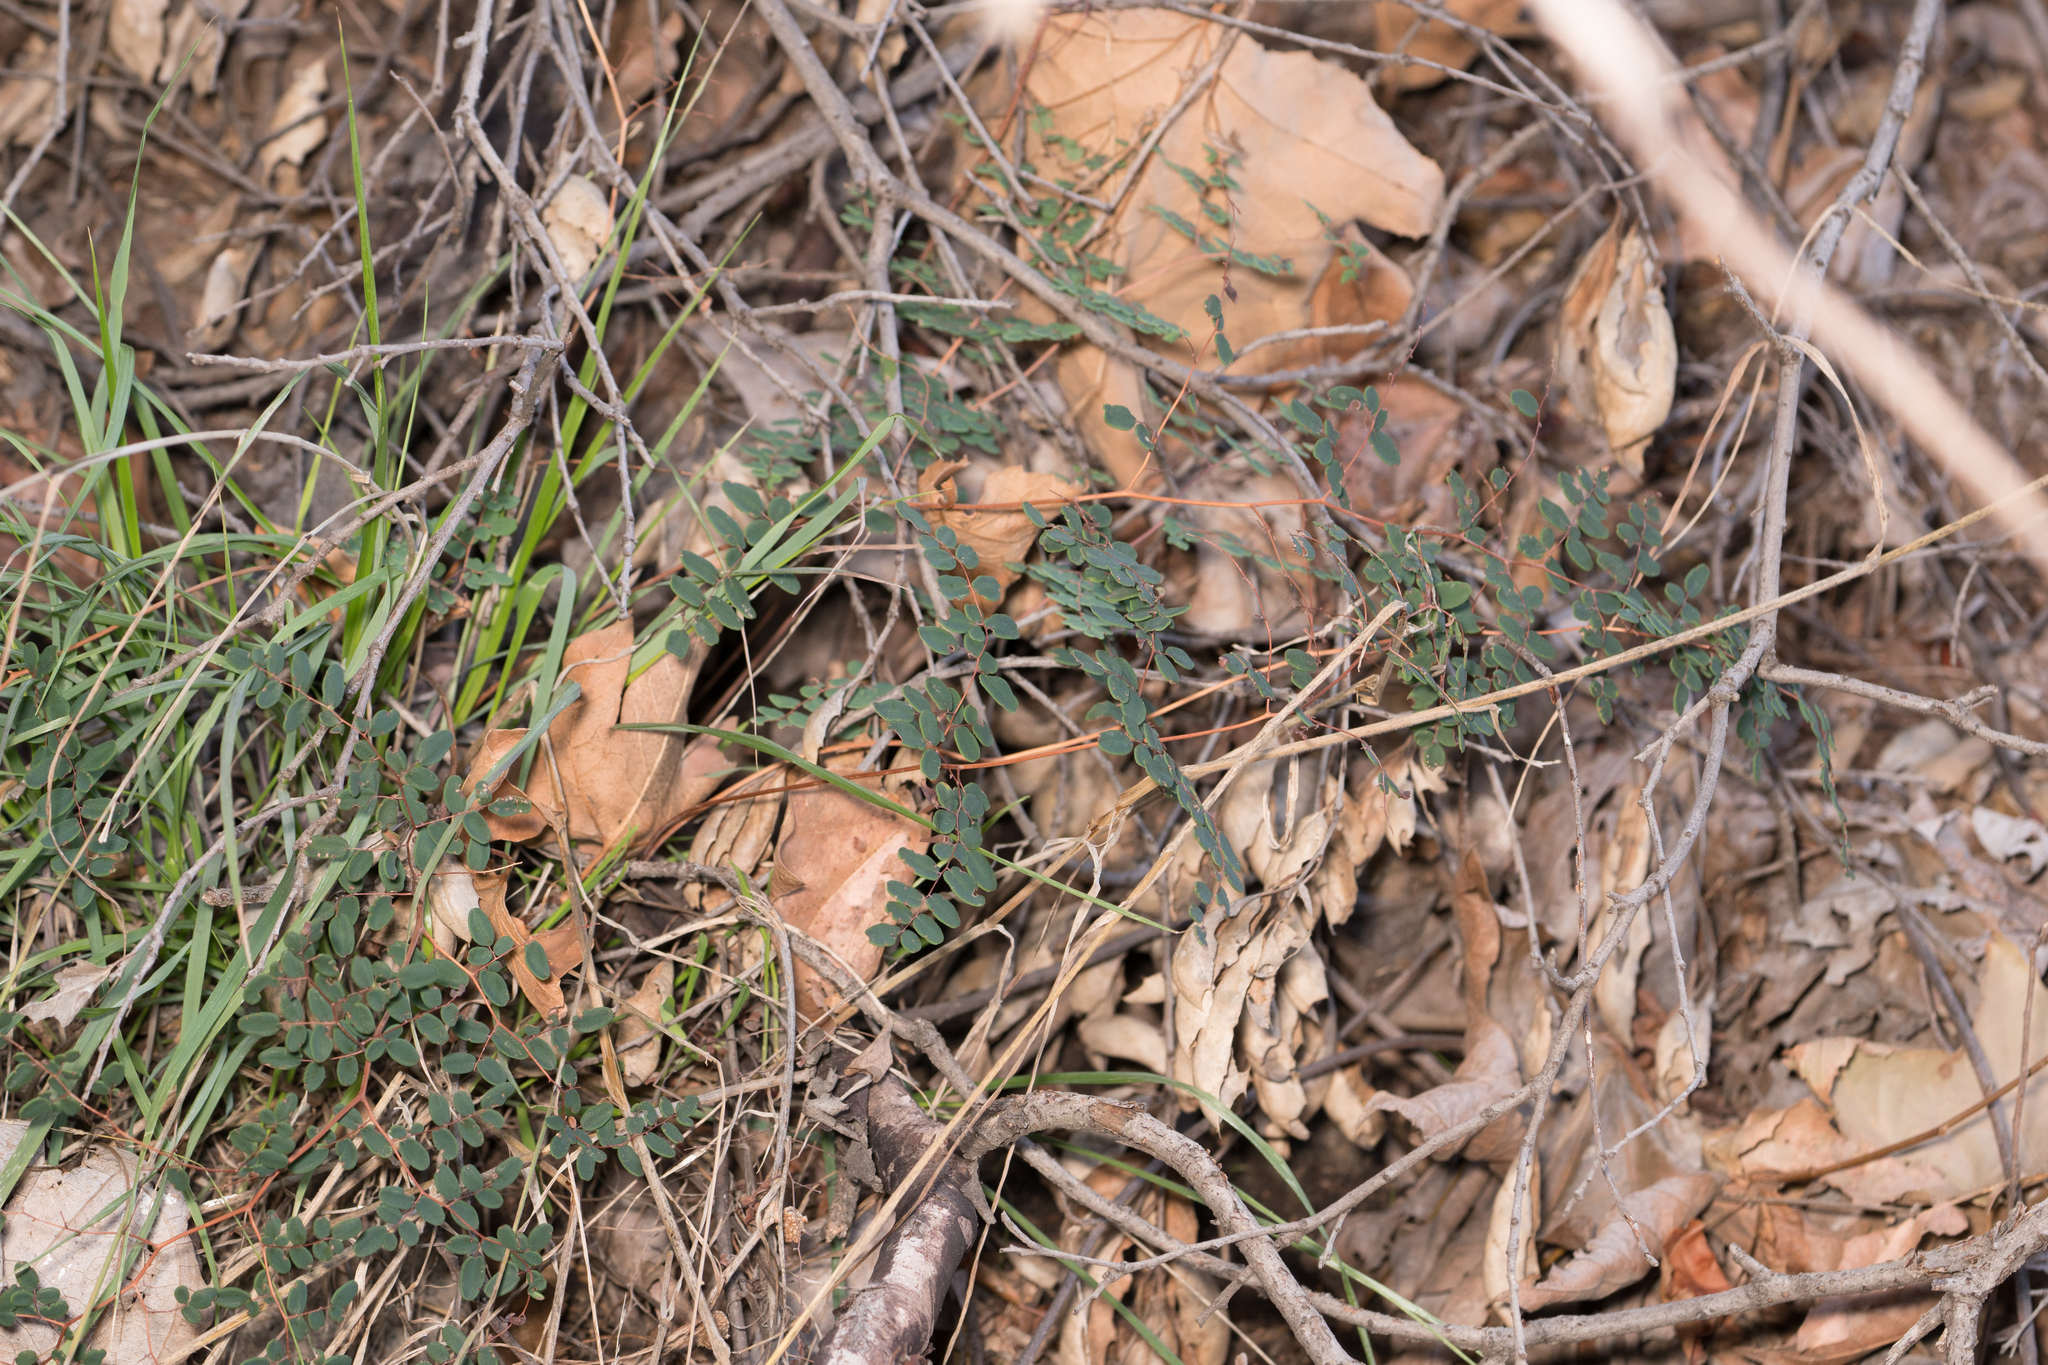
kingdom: Plantae
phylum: Tracheophyta
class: Polypodiopsida
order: Polypodiales
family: Pteridaceae
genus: Pellaea
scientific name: Pellaea andromedifolia
